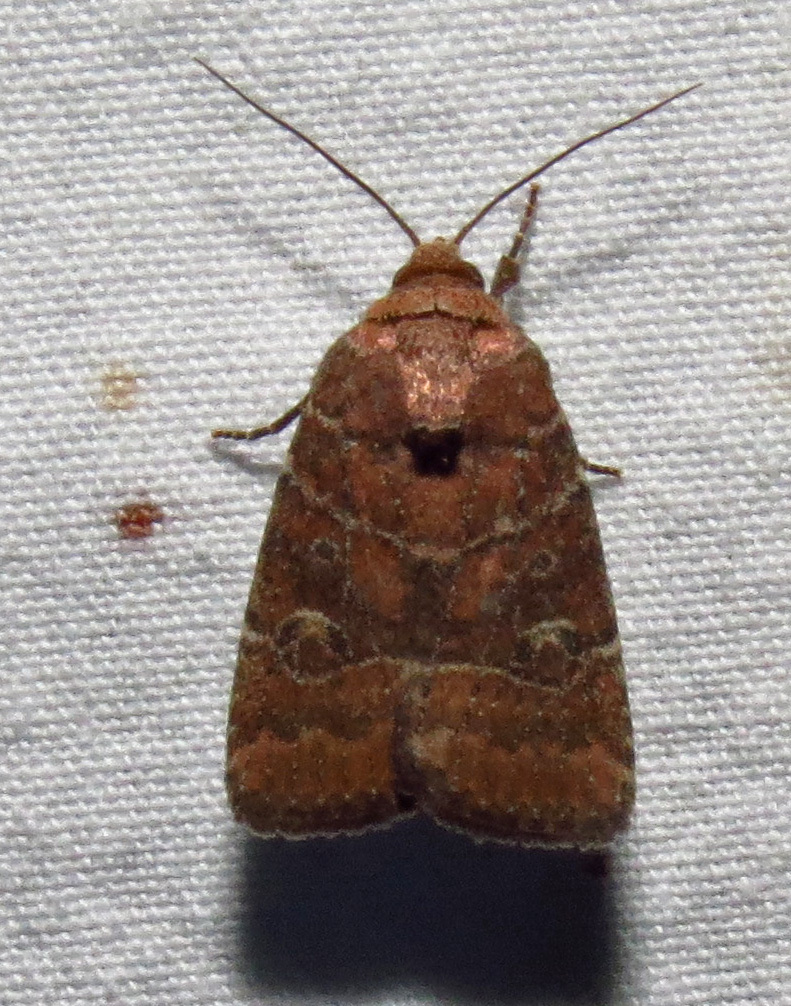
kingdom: Animalia
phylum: Arthropoda
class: Insecta
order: Lepidoptera
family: Noctuidae
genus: Elaphria
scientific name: Elaphria grata
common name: Grateful midget moth
